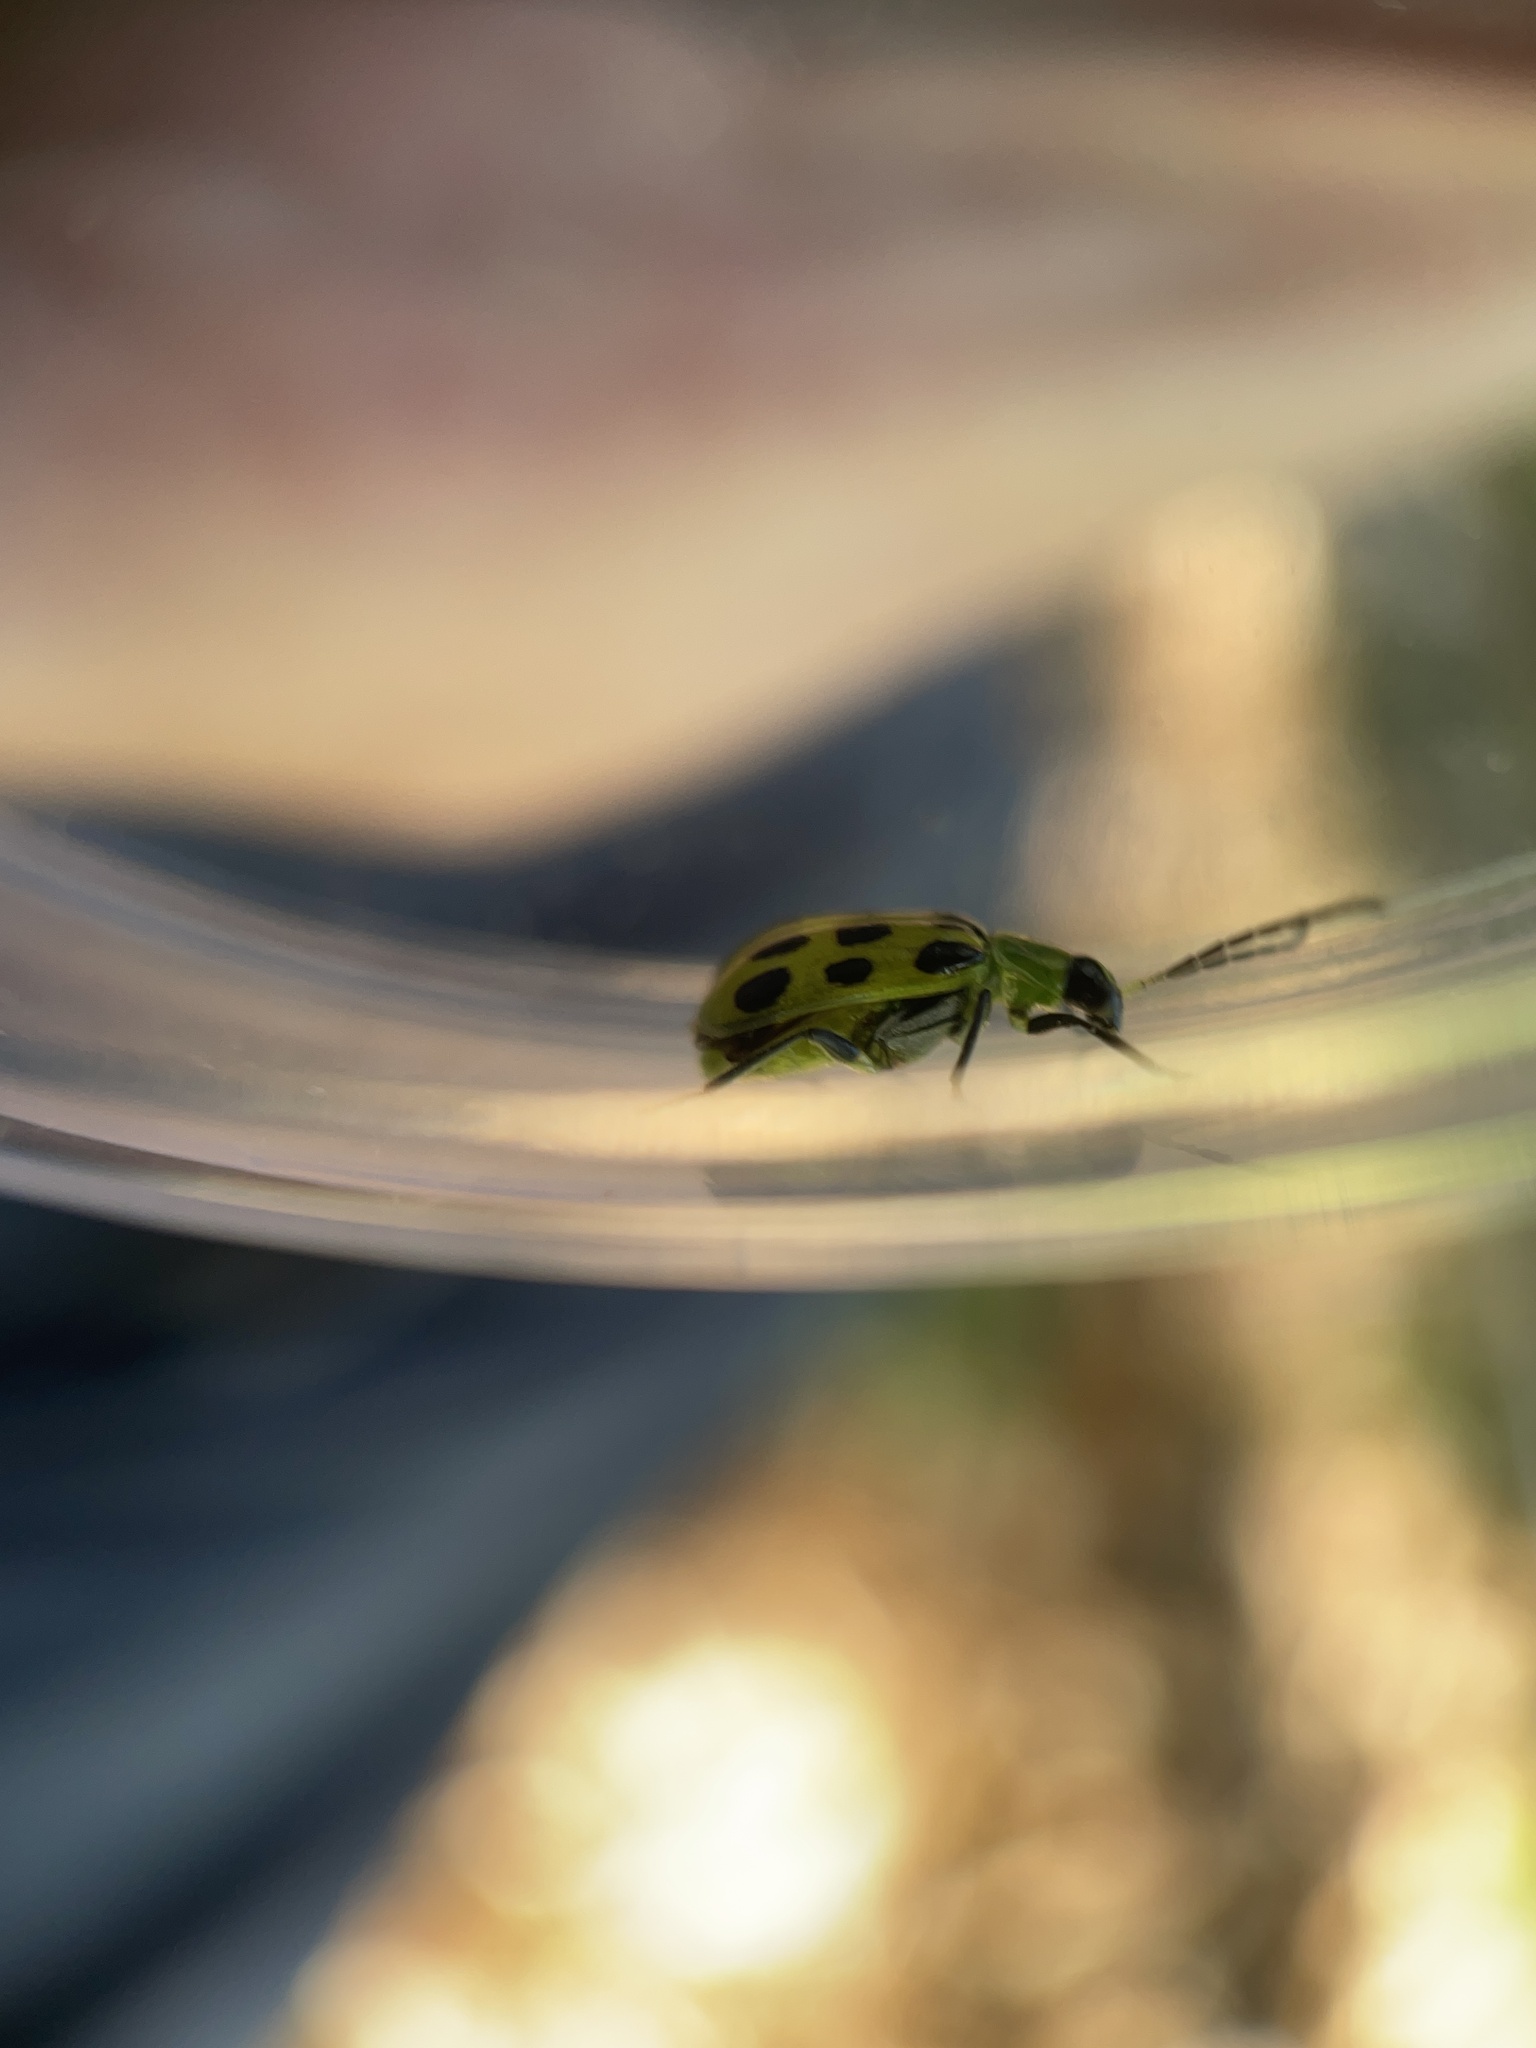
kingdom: Animalia
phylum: Arthropoda
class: Insecta
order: Coleoptera
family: Chrysomelidae
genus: Diabrotica
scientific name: Diabrotica undecimpunctata
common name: Spotted cucumber beetle
